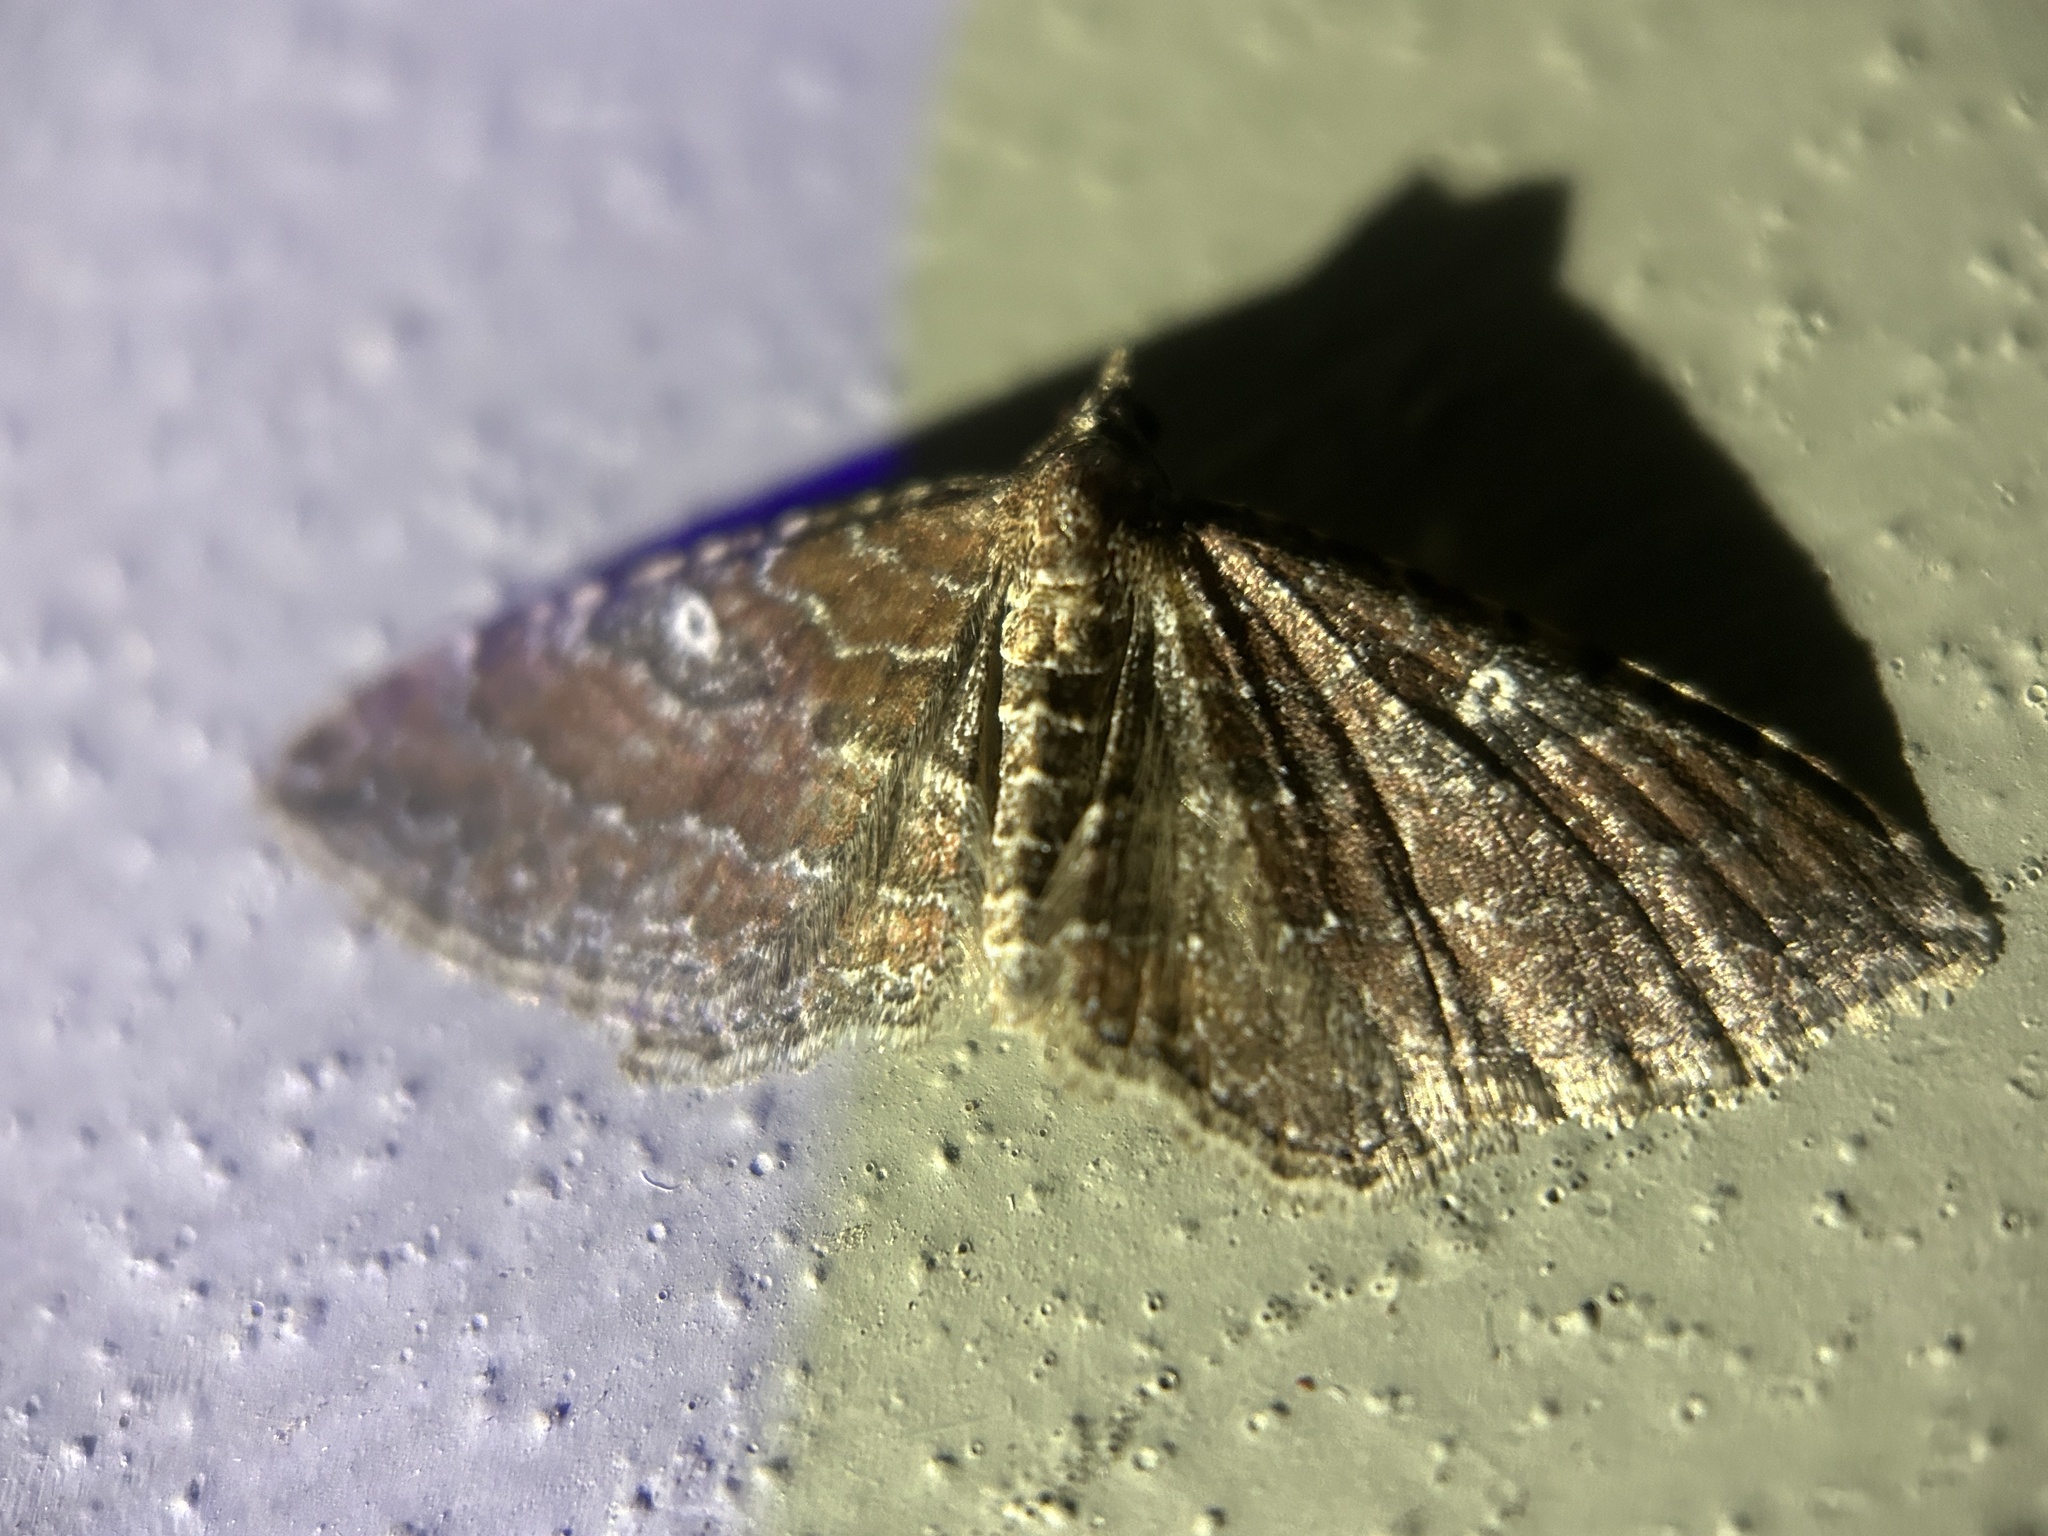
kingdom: Animalia
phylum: Arthropoda
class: Insecta
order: Lepidoptera
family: Geometridae
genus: Orthonama
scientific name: Orthonama obstipata
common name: The gem
